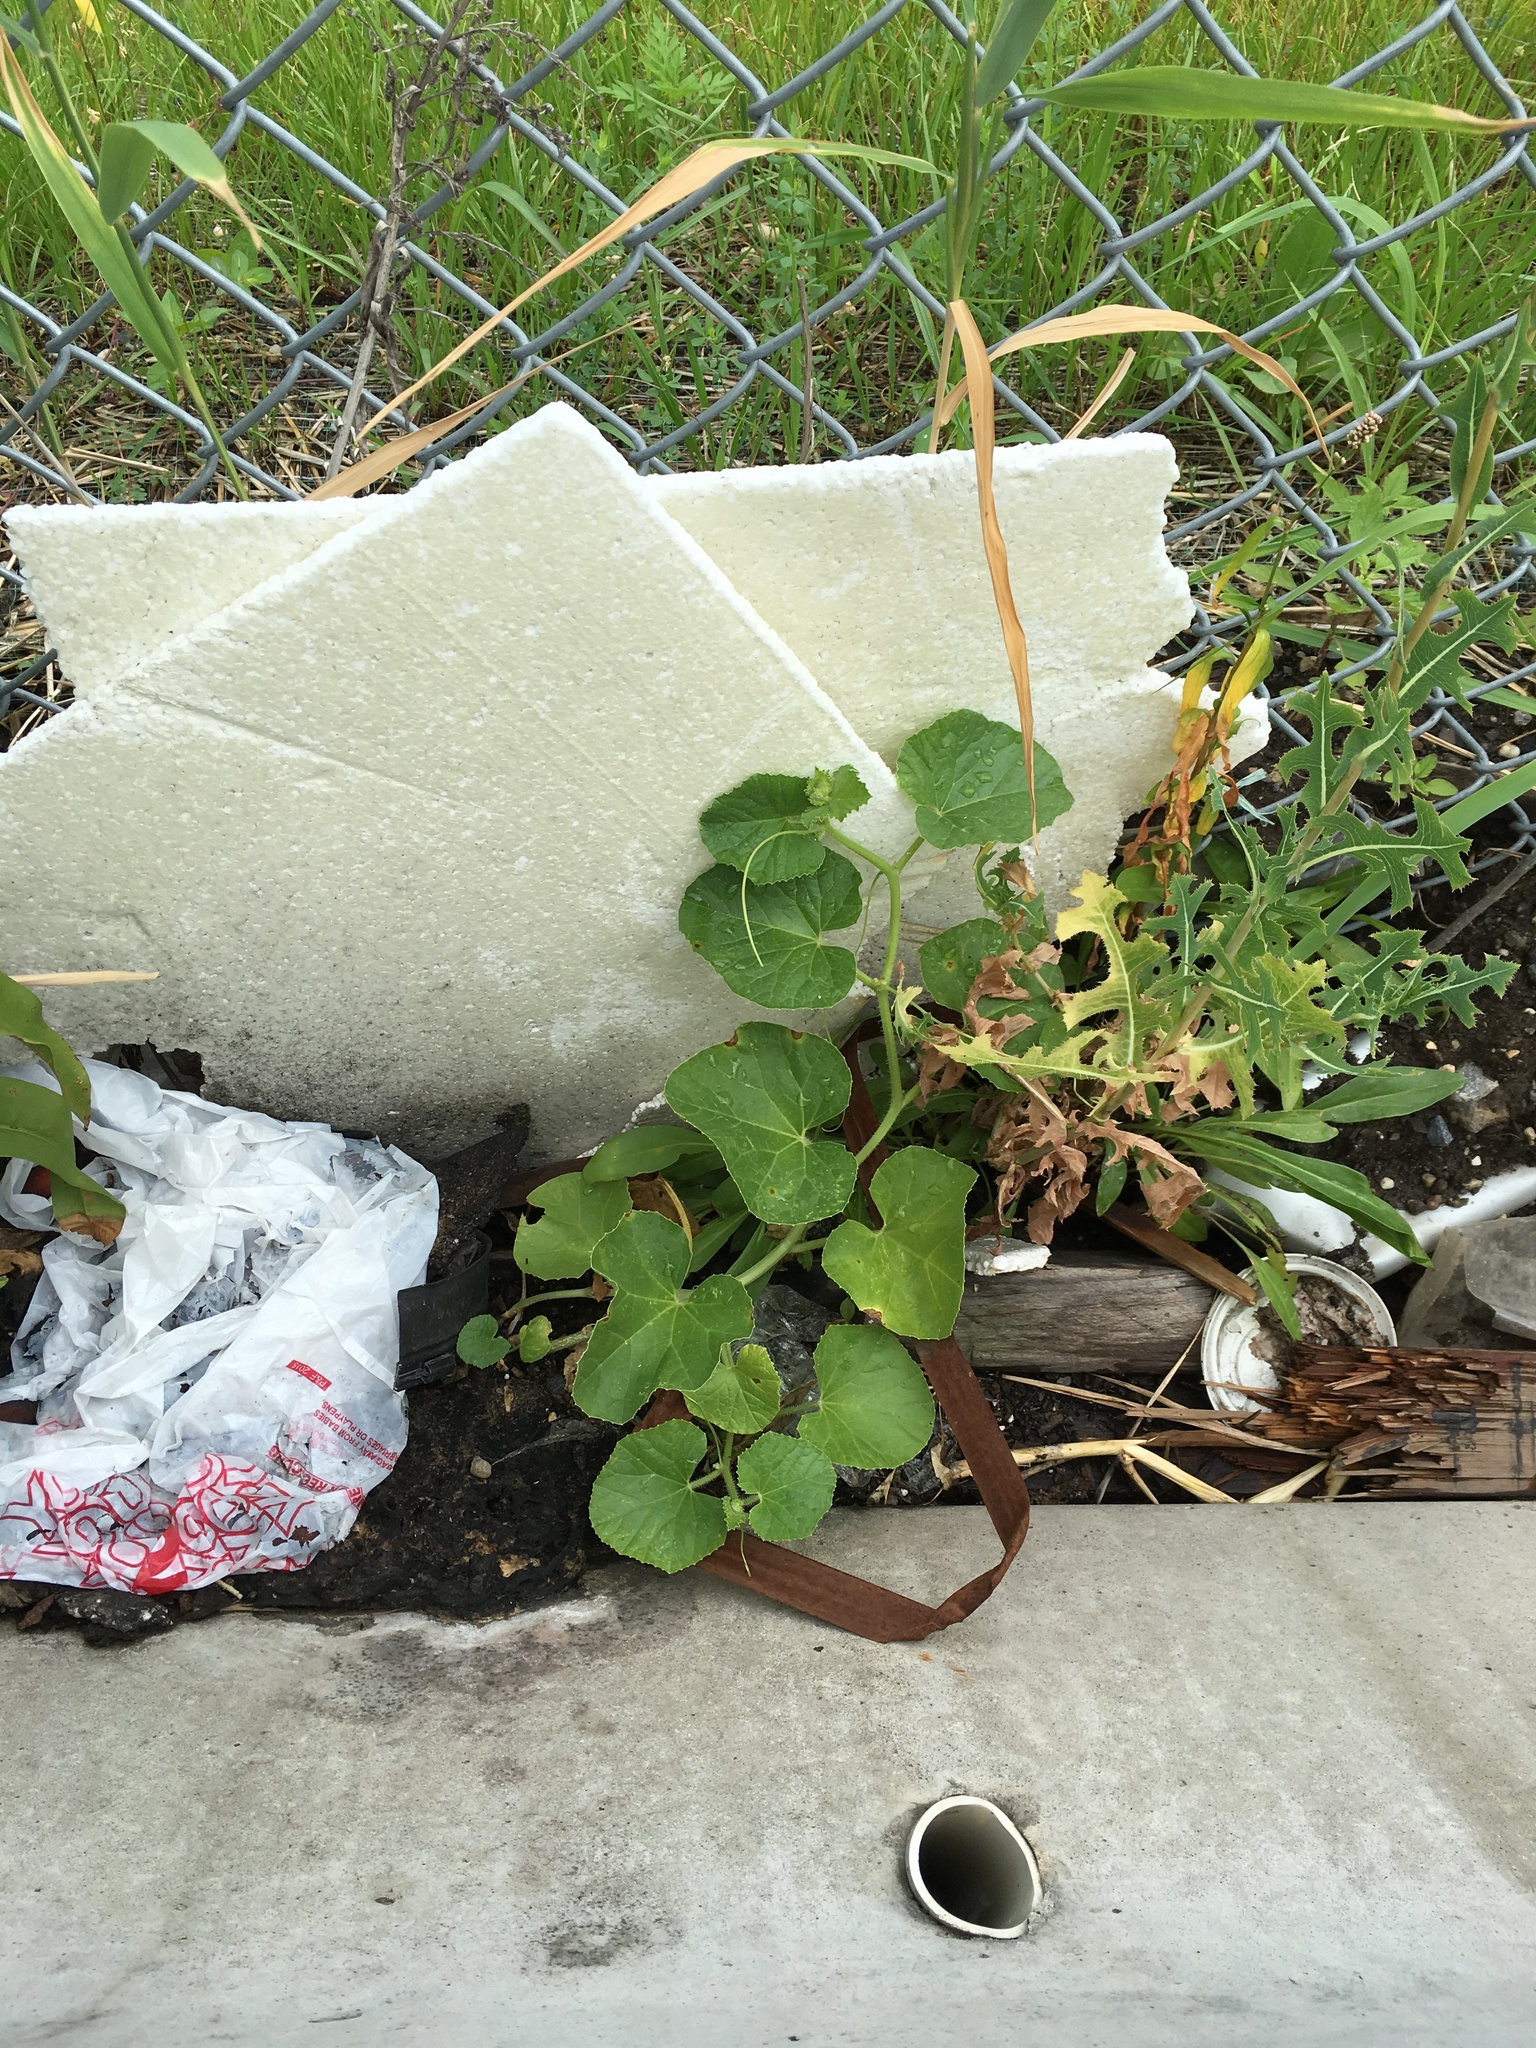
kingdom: Plantae
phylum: Tracheophyta
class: Magnoliopsida
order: Cucurbitales
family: Cucurbitaceae
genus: Cucumis
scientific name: Cucumis melo
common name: Melon
